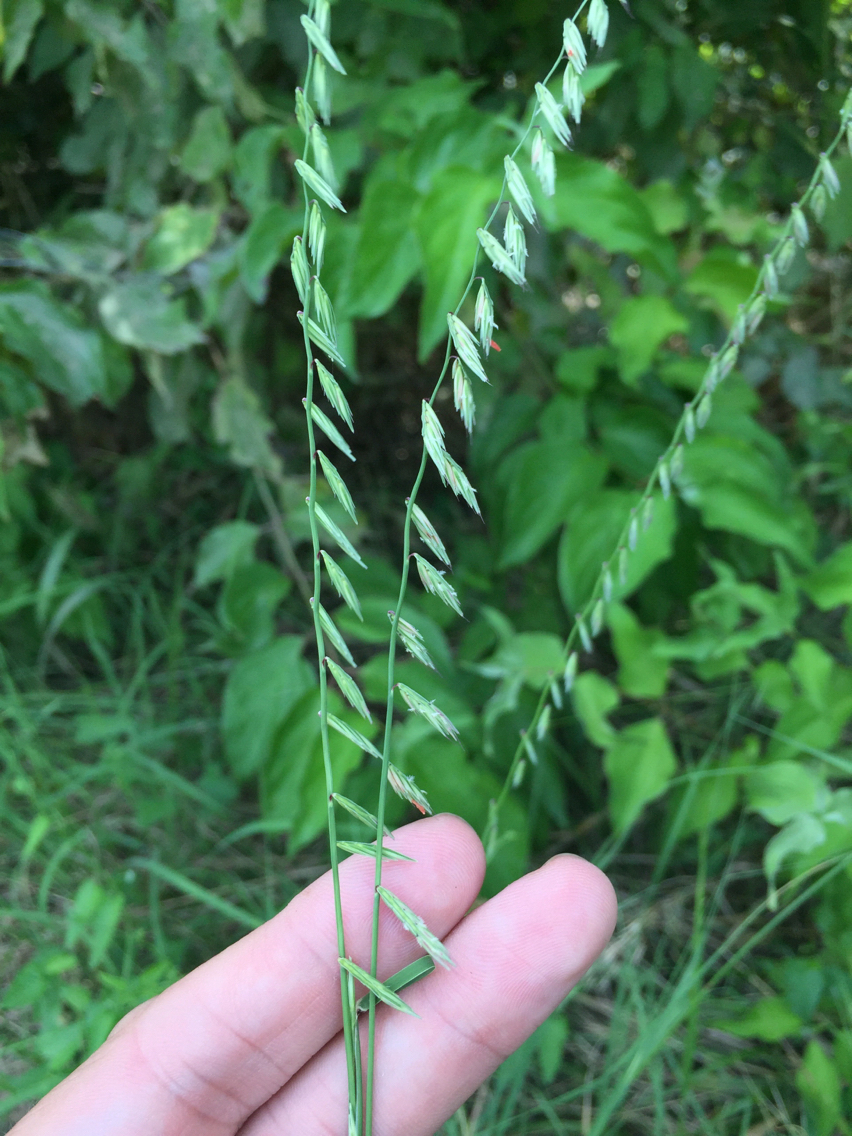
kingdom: Plantae
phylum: Tracheophyta
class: Liliopsida
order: Poales
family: Poaceae
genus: Bouteloua
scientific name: Bouteloua curtipendula
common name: Side-oats grama
